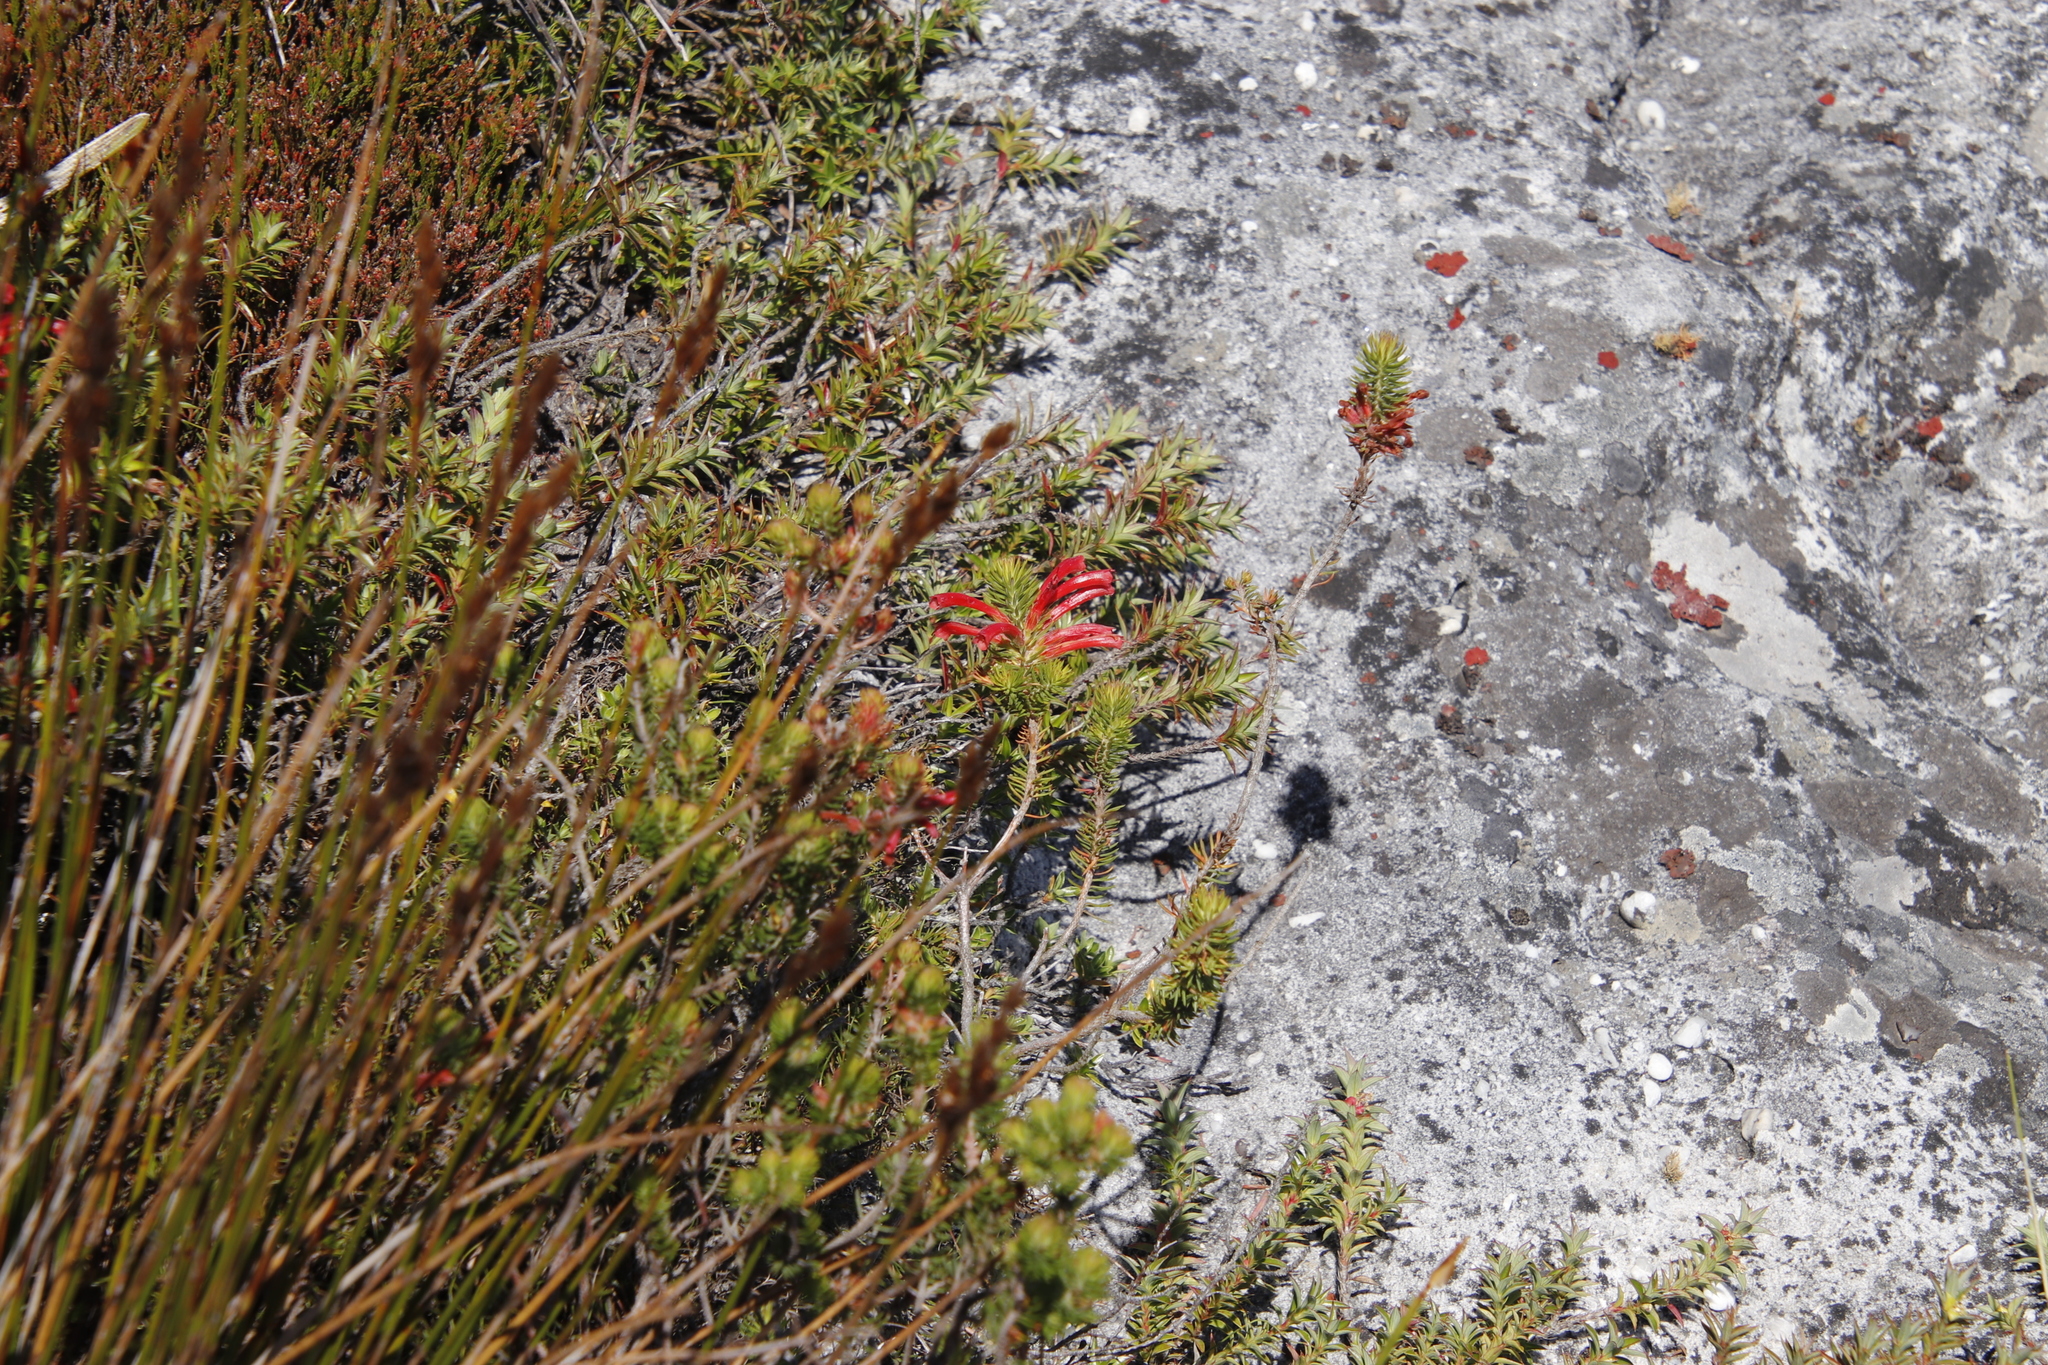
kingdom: Plantae
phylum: Tracheophyta
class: Magnoliopsida
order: Ericales
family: Ericaceae
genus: Erica
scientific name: Erica abietina
